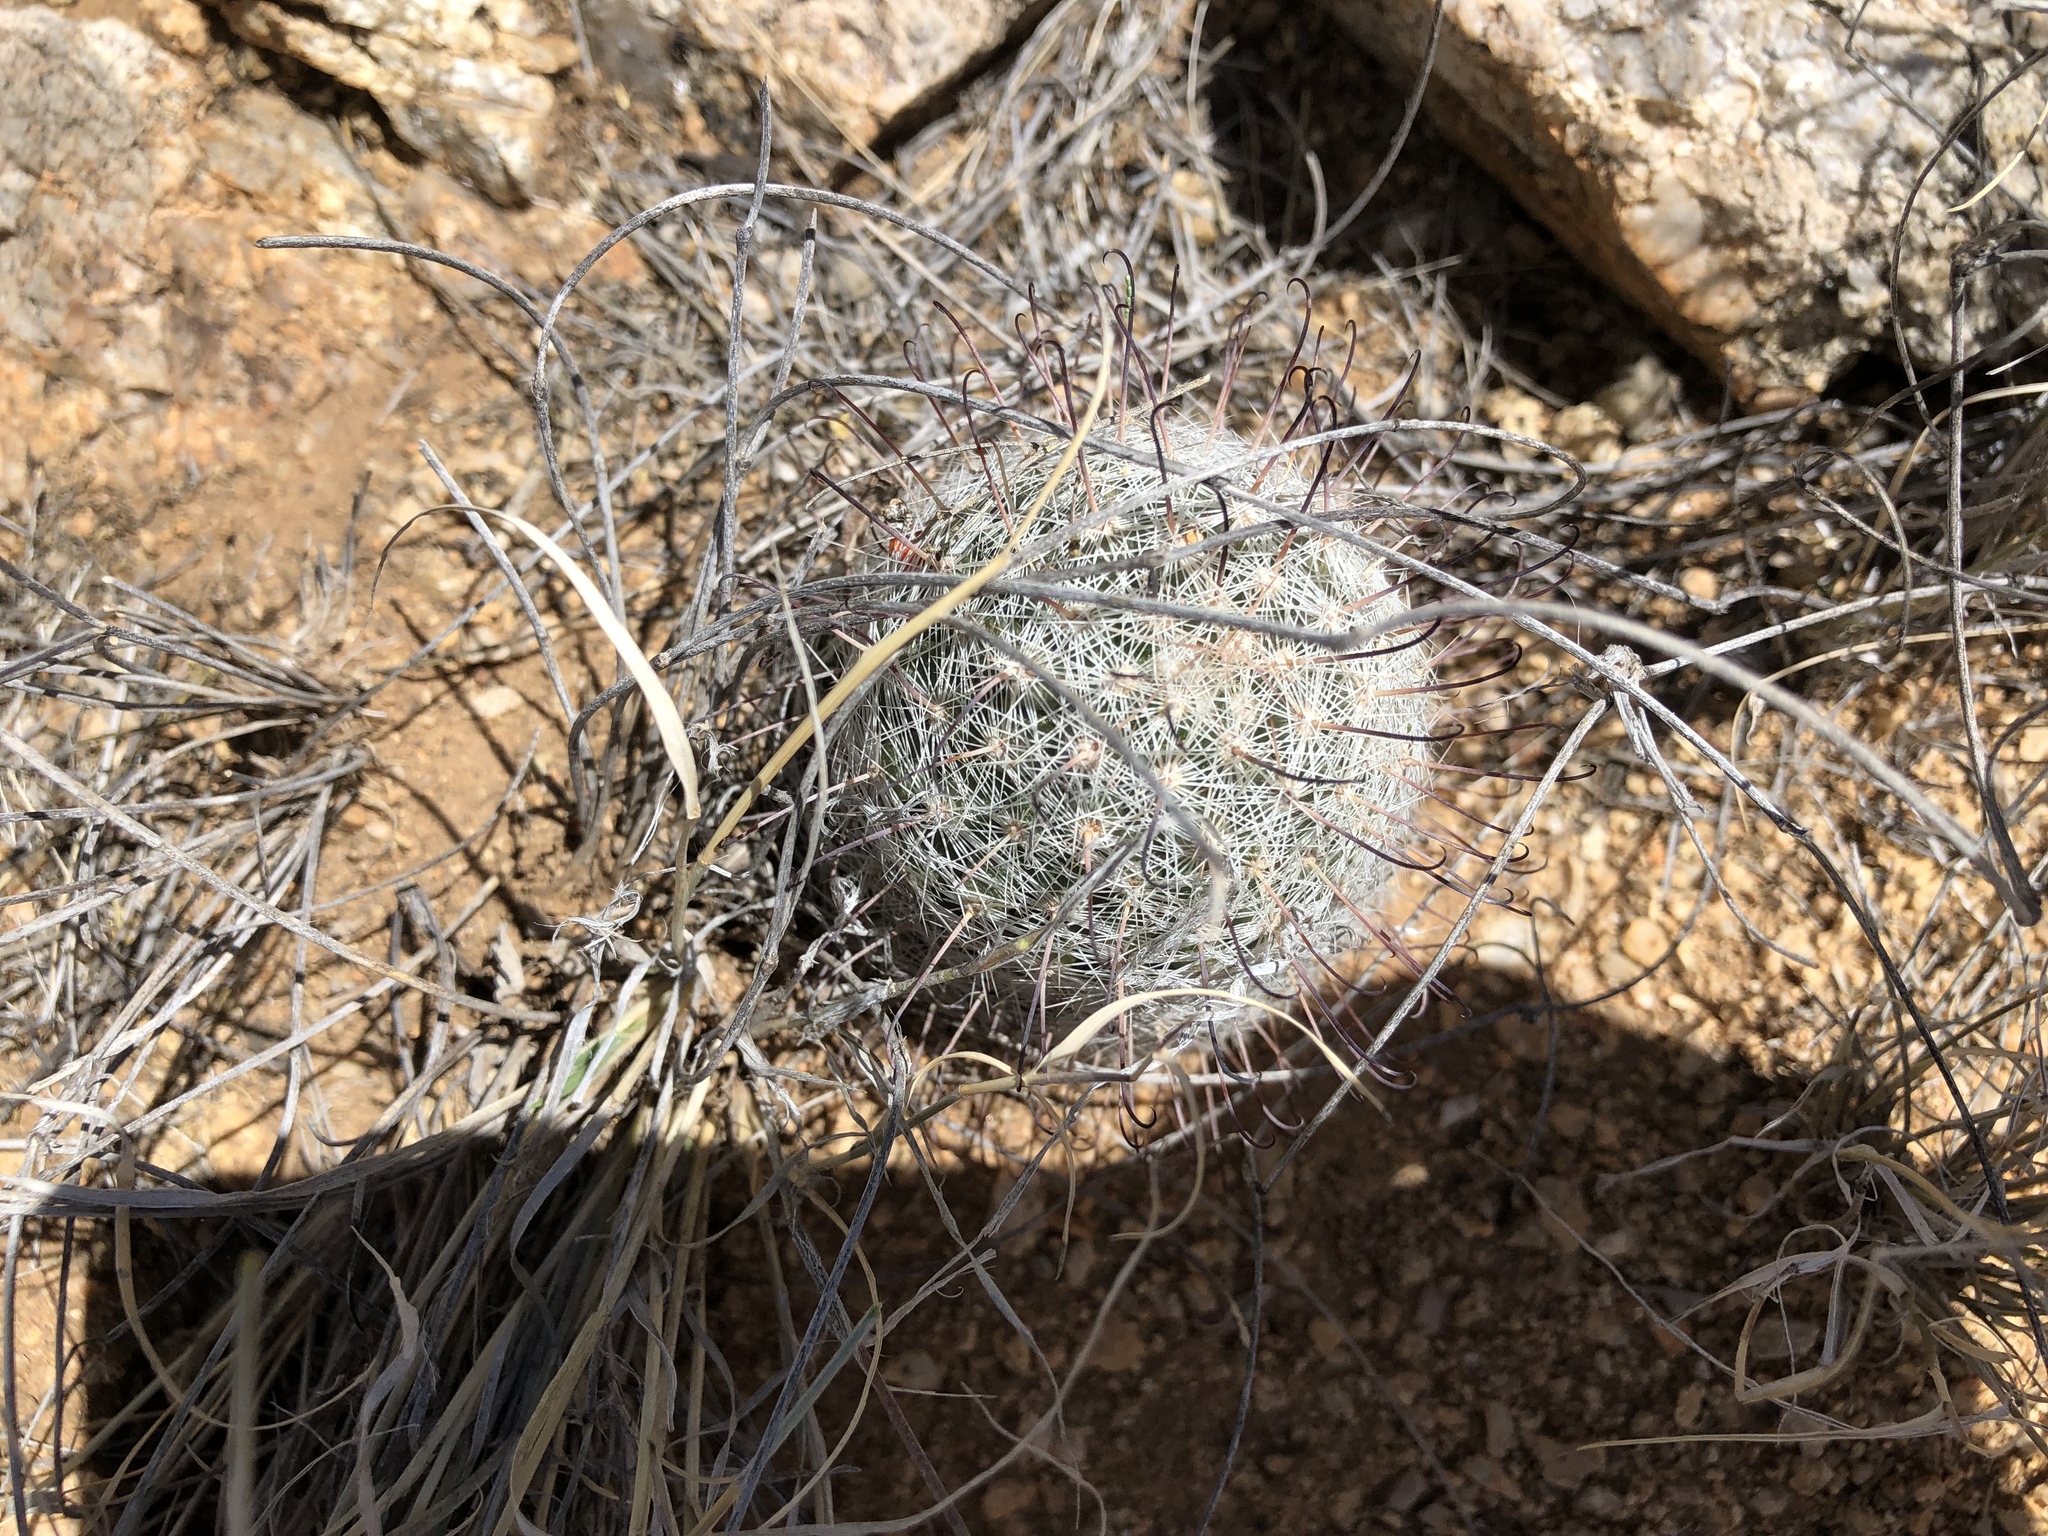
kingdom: Plantae
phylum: Tracheophyta
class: Magnoliopsida
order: Caryophyllales
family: Cactaceae
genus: Cochemiea
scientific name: Cochemiea grahamii
